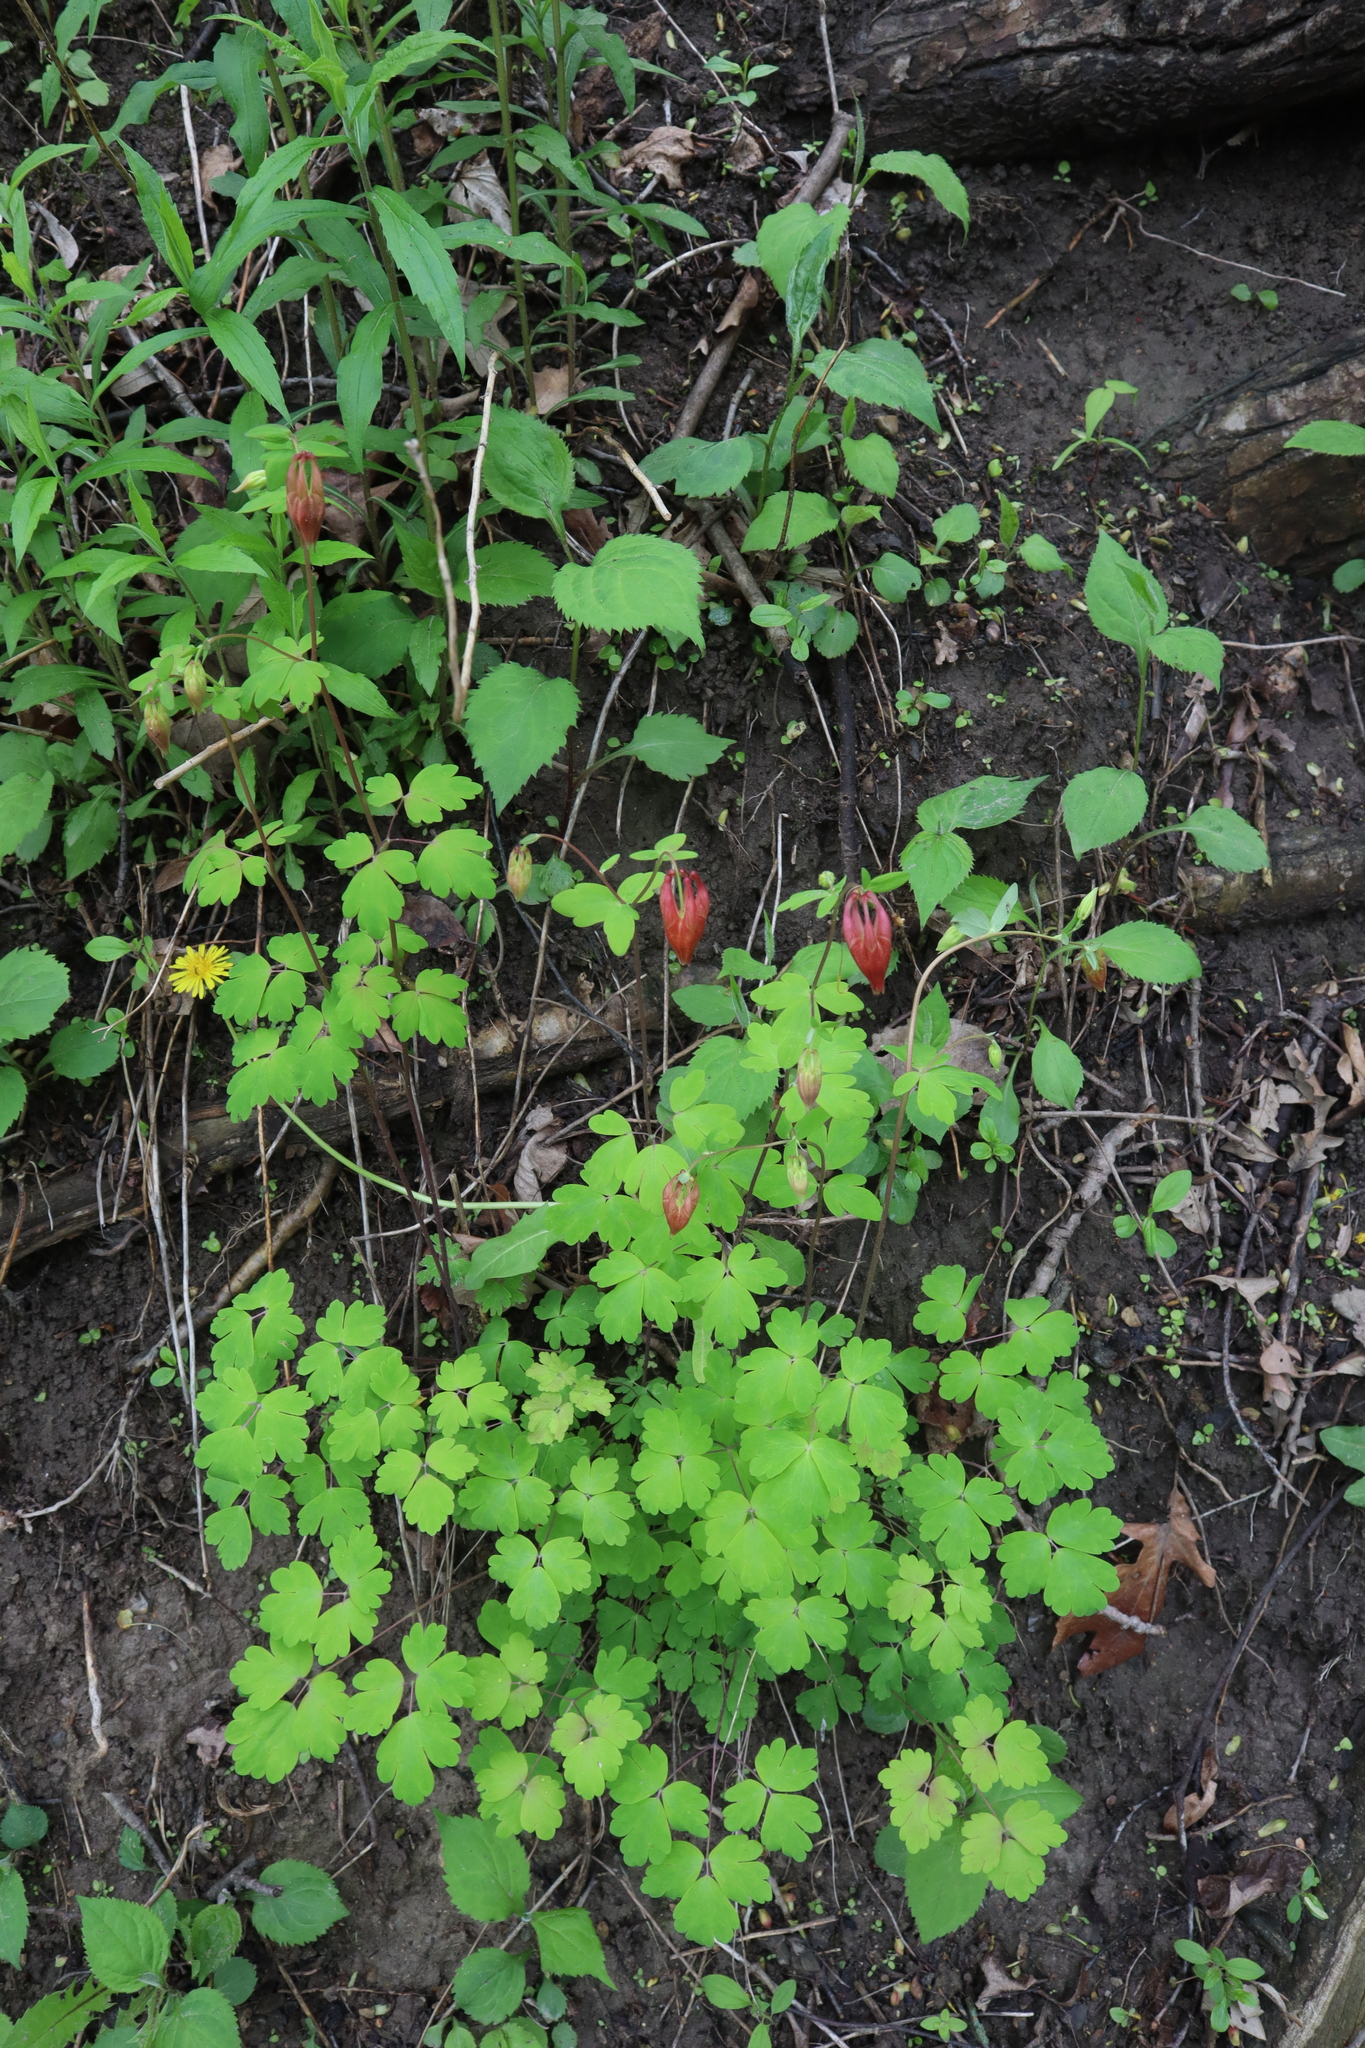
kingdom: Plantae
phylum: Tracheophyta
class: Magnoliopsida
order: Ranunculales
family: Ranunculaceae
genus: Aquilegia
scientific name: Aquilegia canadensis
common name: American columbine
